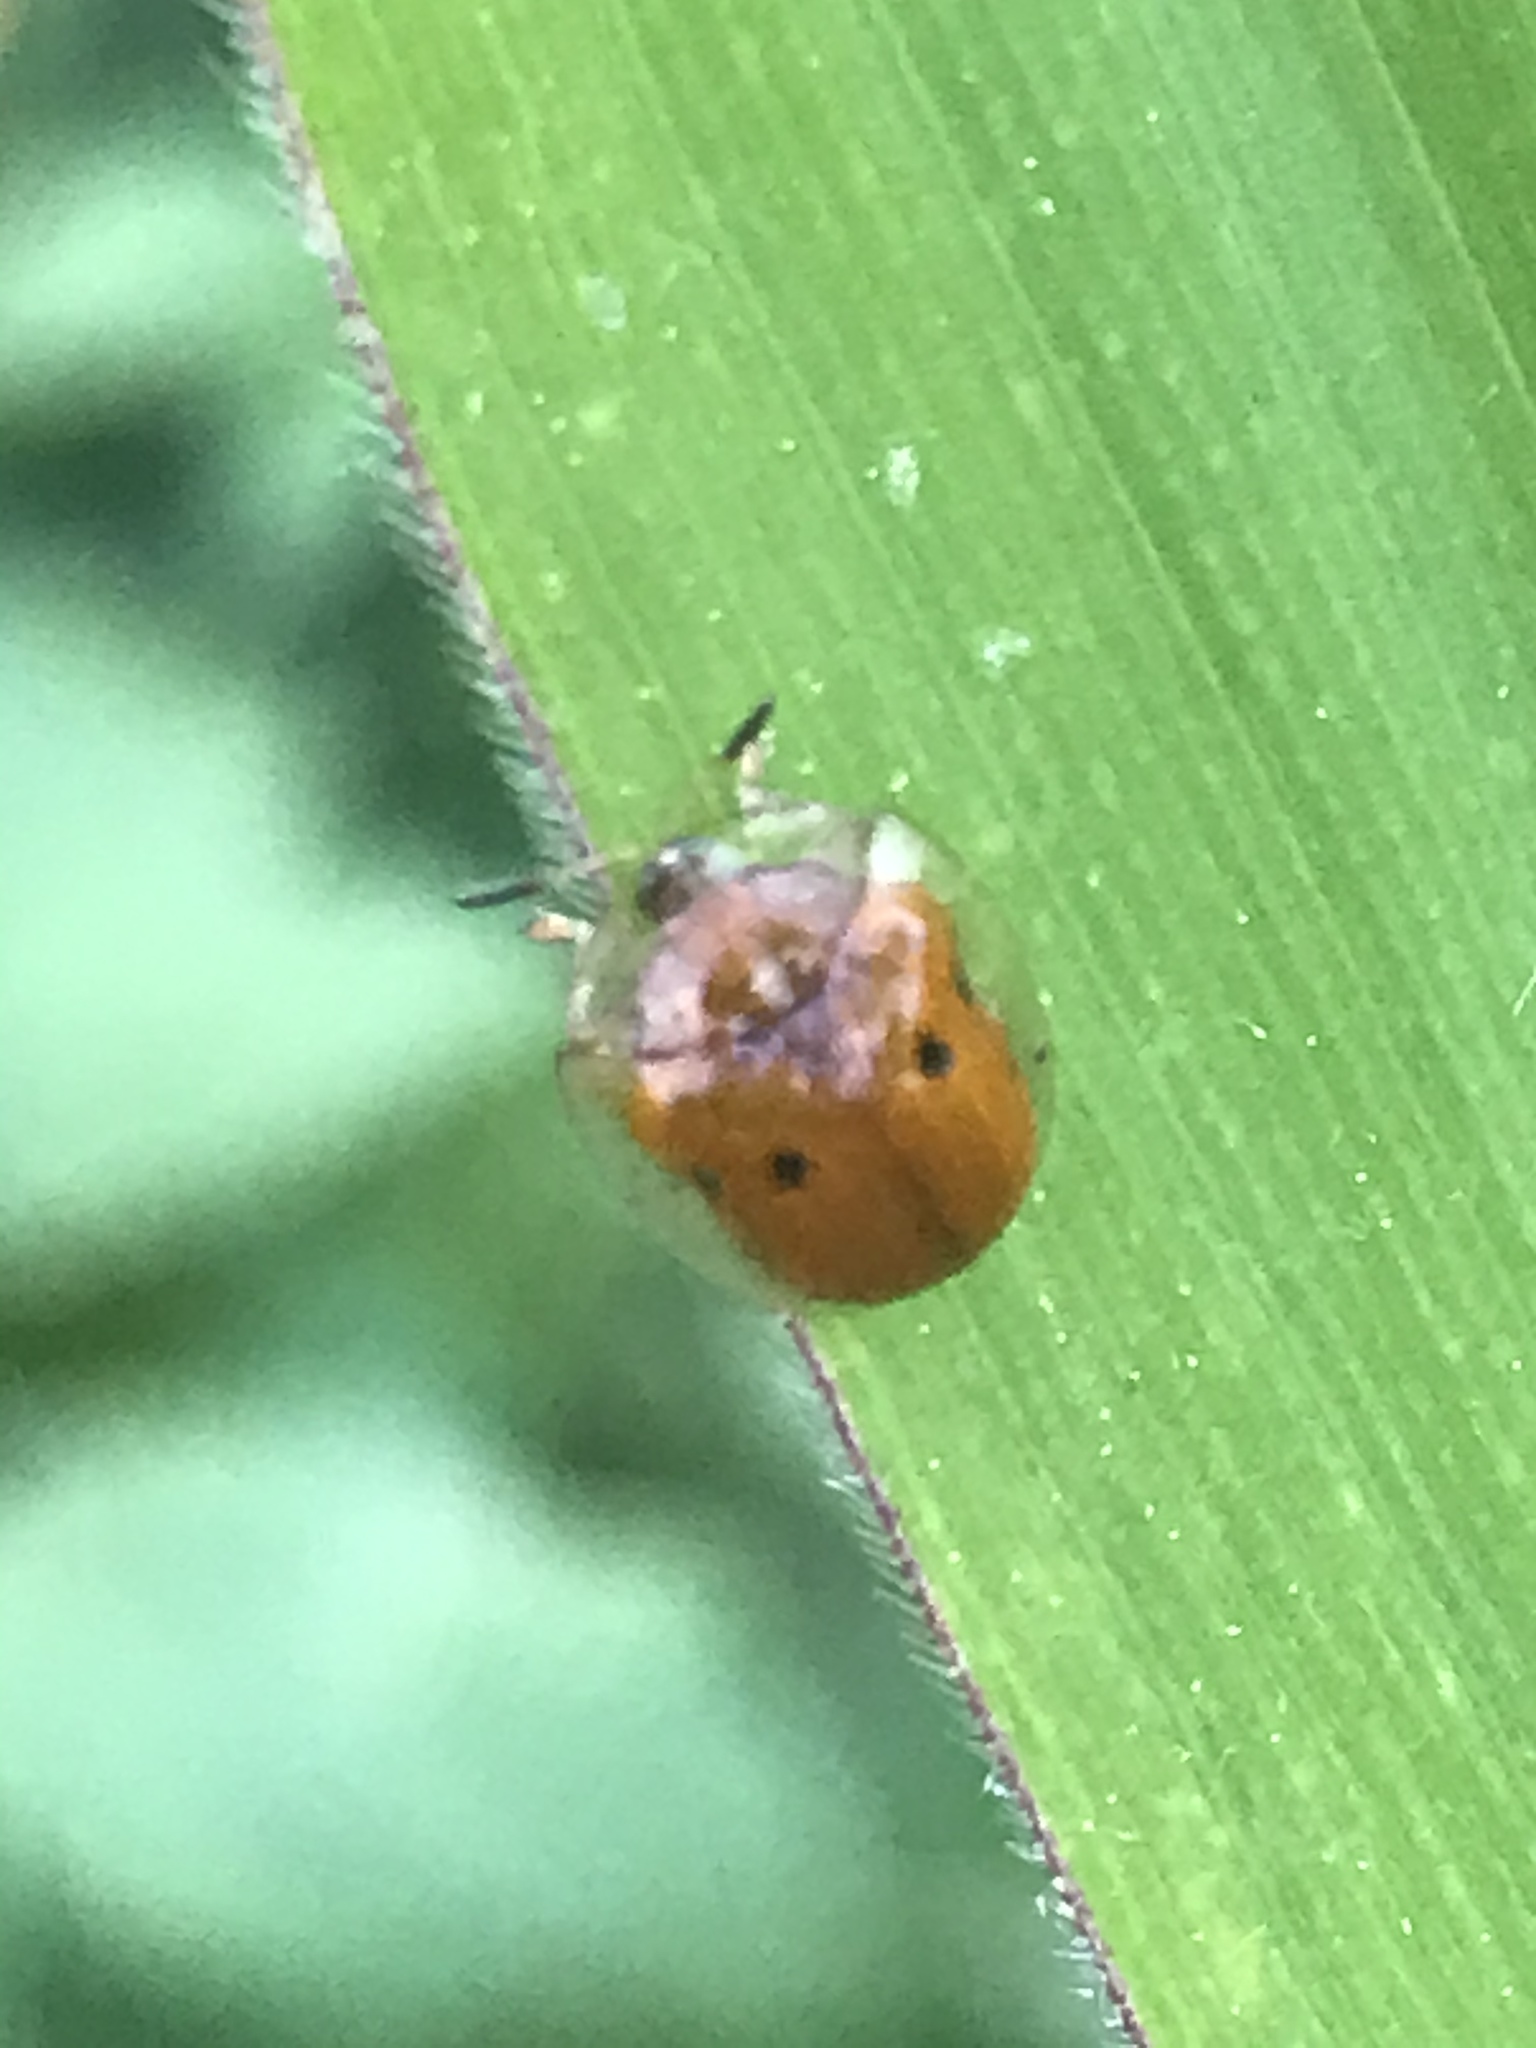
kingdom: Animalia
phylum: Arthropoda
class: Insecta
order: Coleoptera
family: Chrysomelidae
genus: Charidotella
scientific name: Charidotella sexpunctata
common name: Golden tortoise beetle
